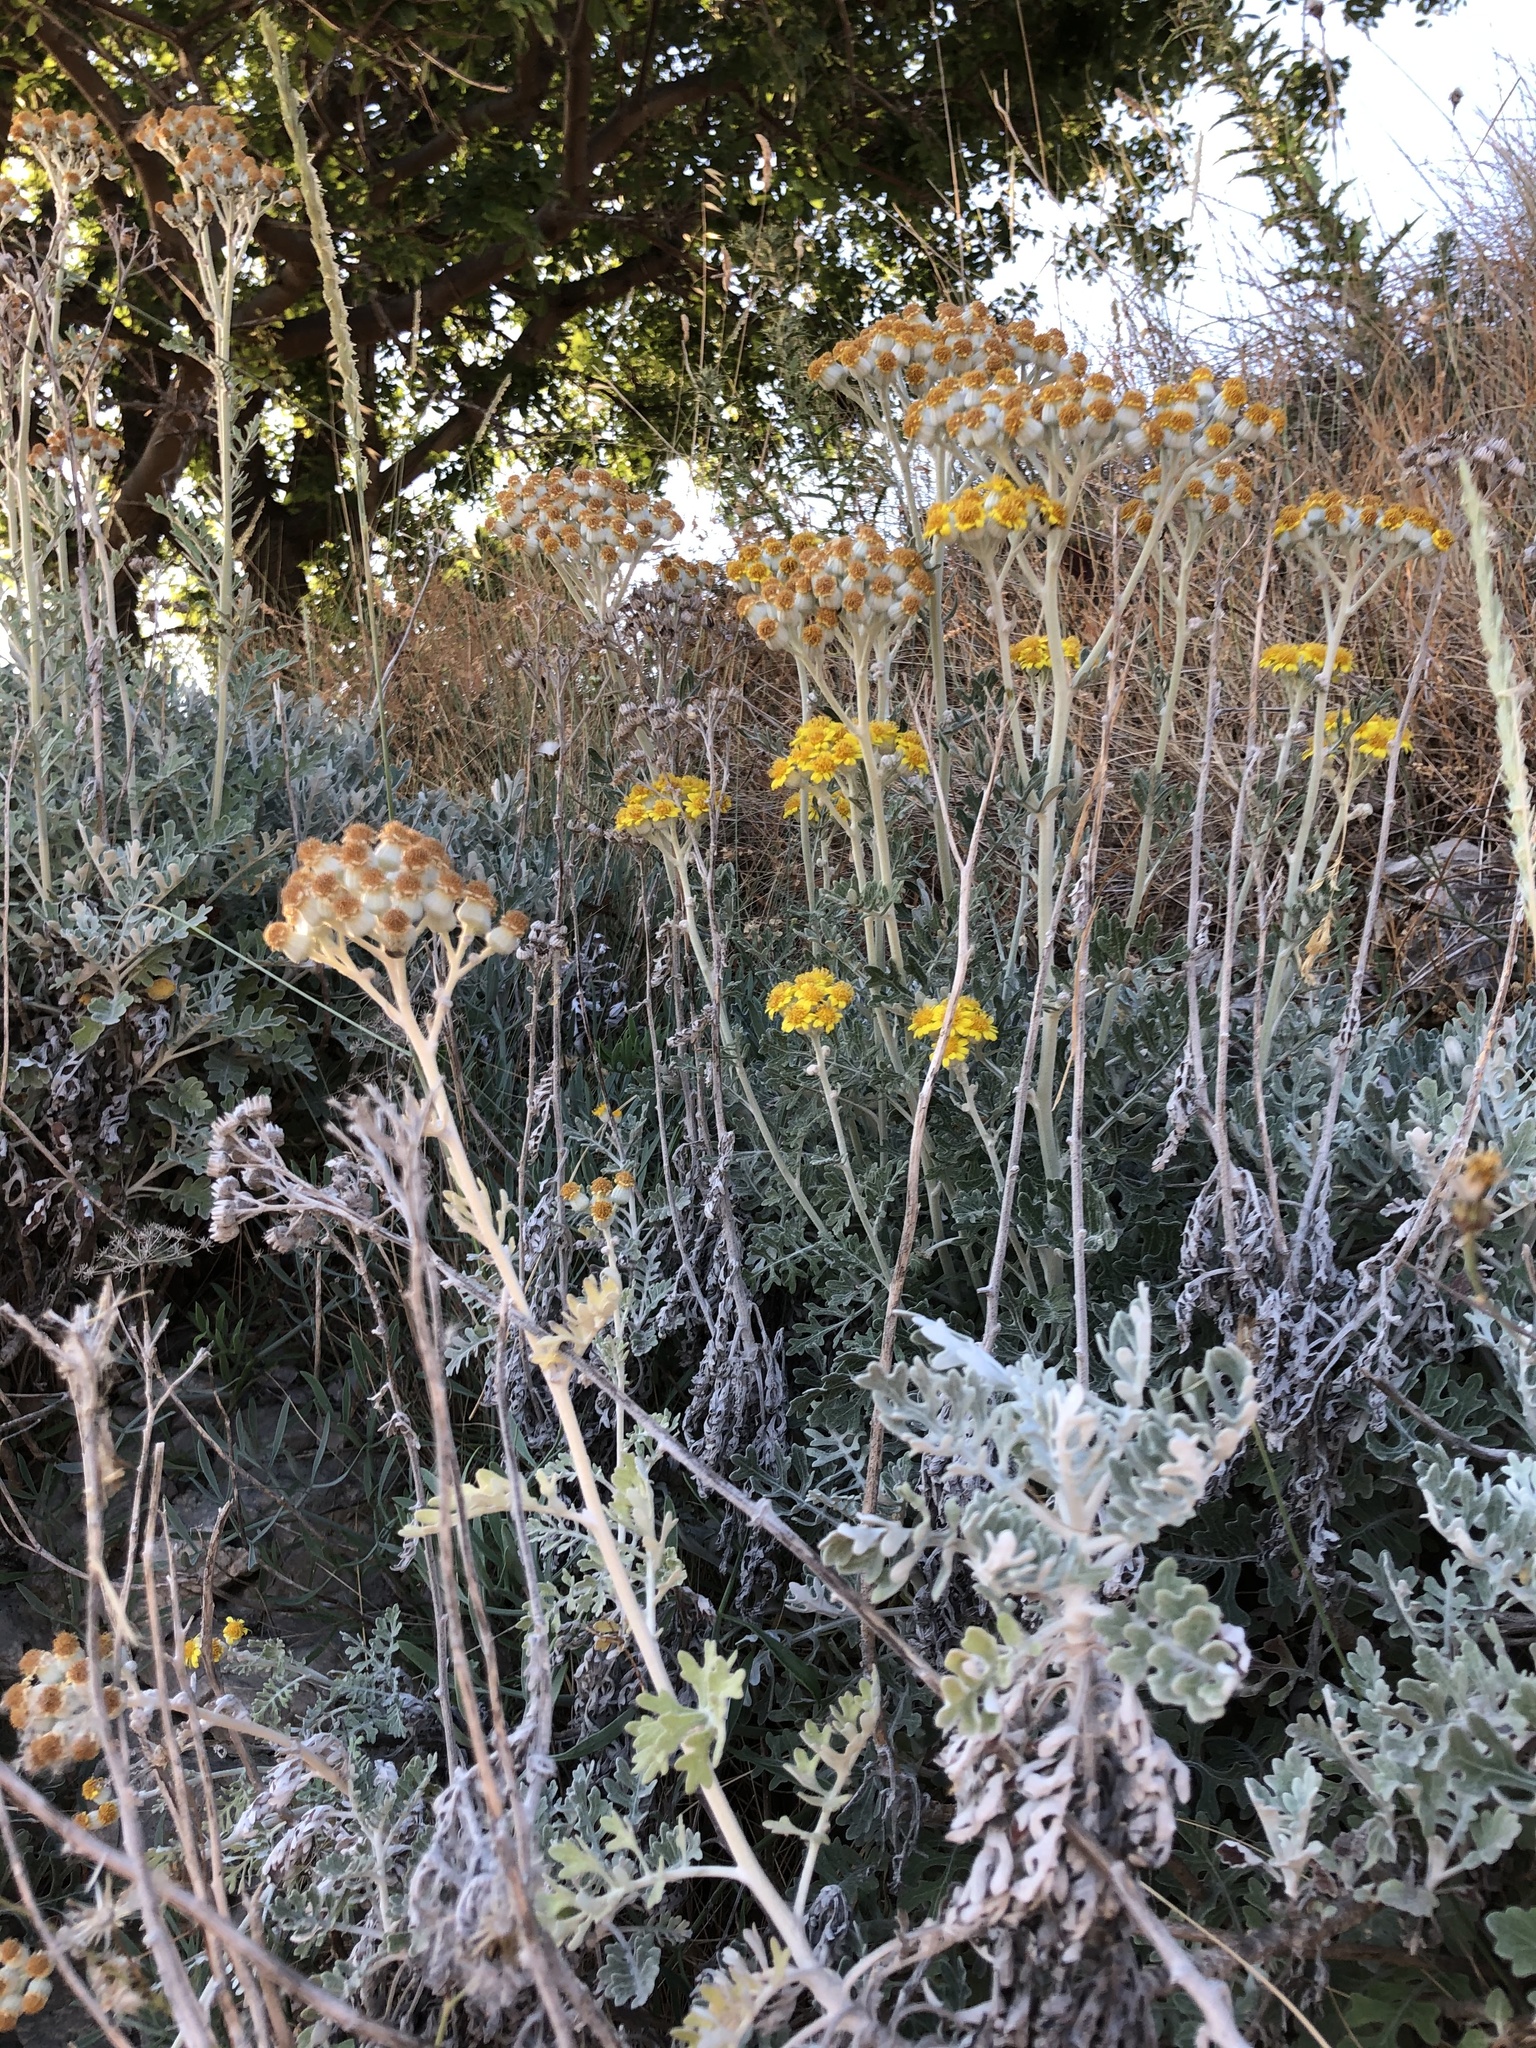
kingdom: Plantae
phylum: Tracheophyta
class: Magnoliopsida
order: Asterales
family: Asteraceae
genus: Jacobaea
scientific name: Jacobaea maritima
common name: Silver ragwort
